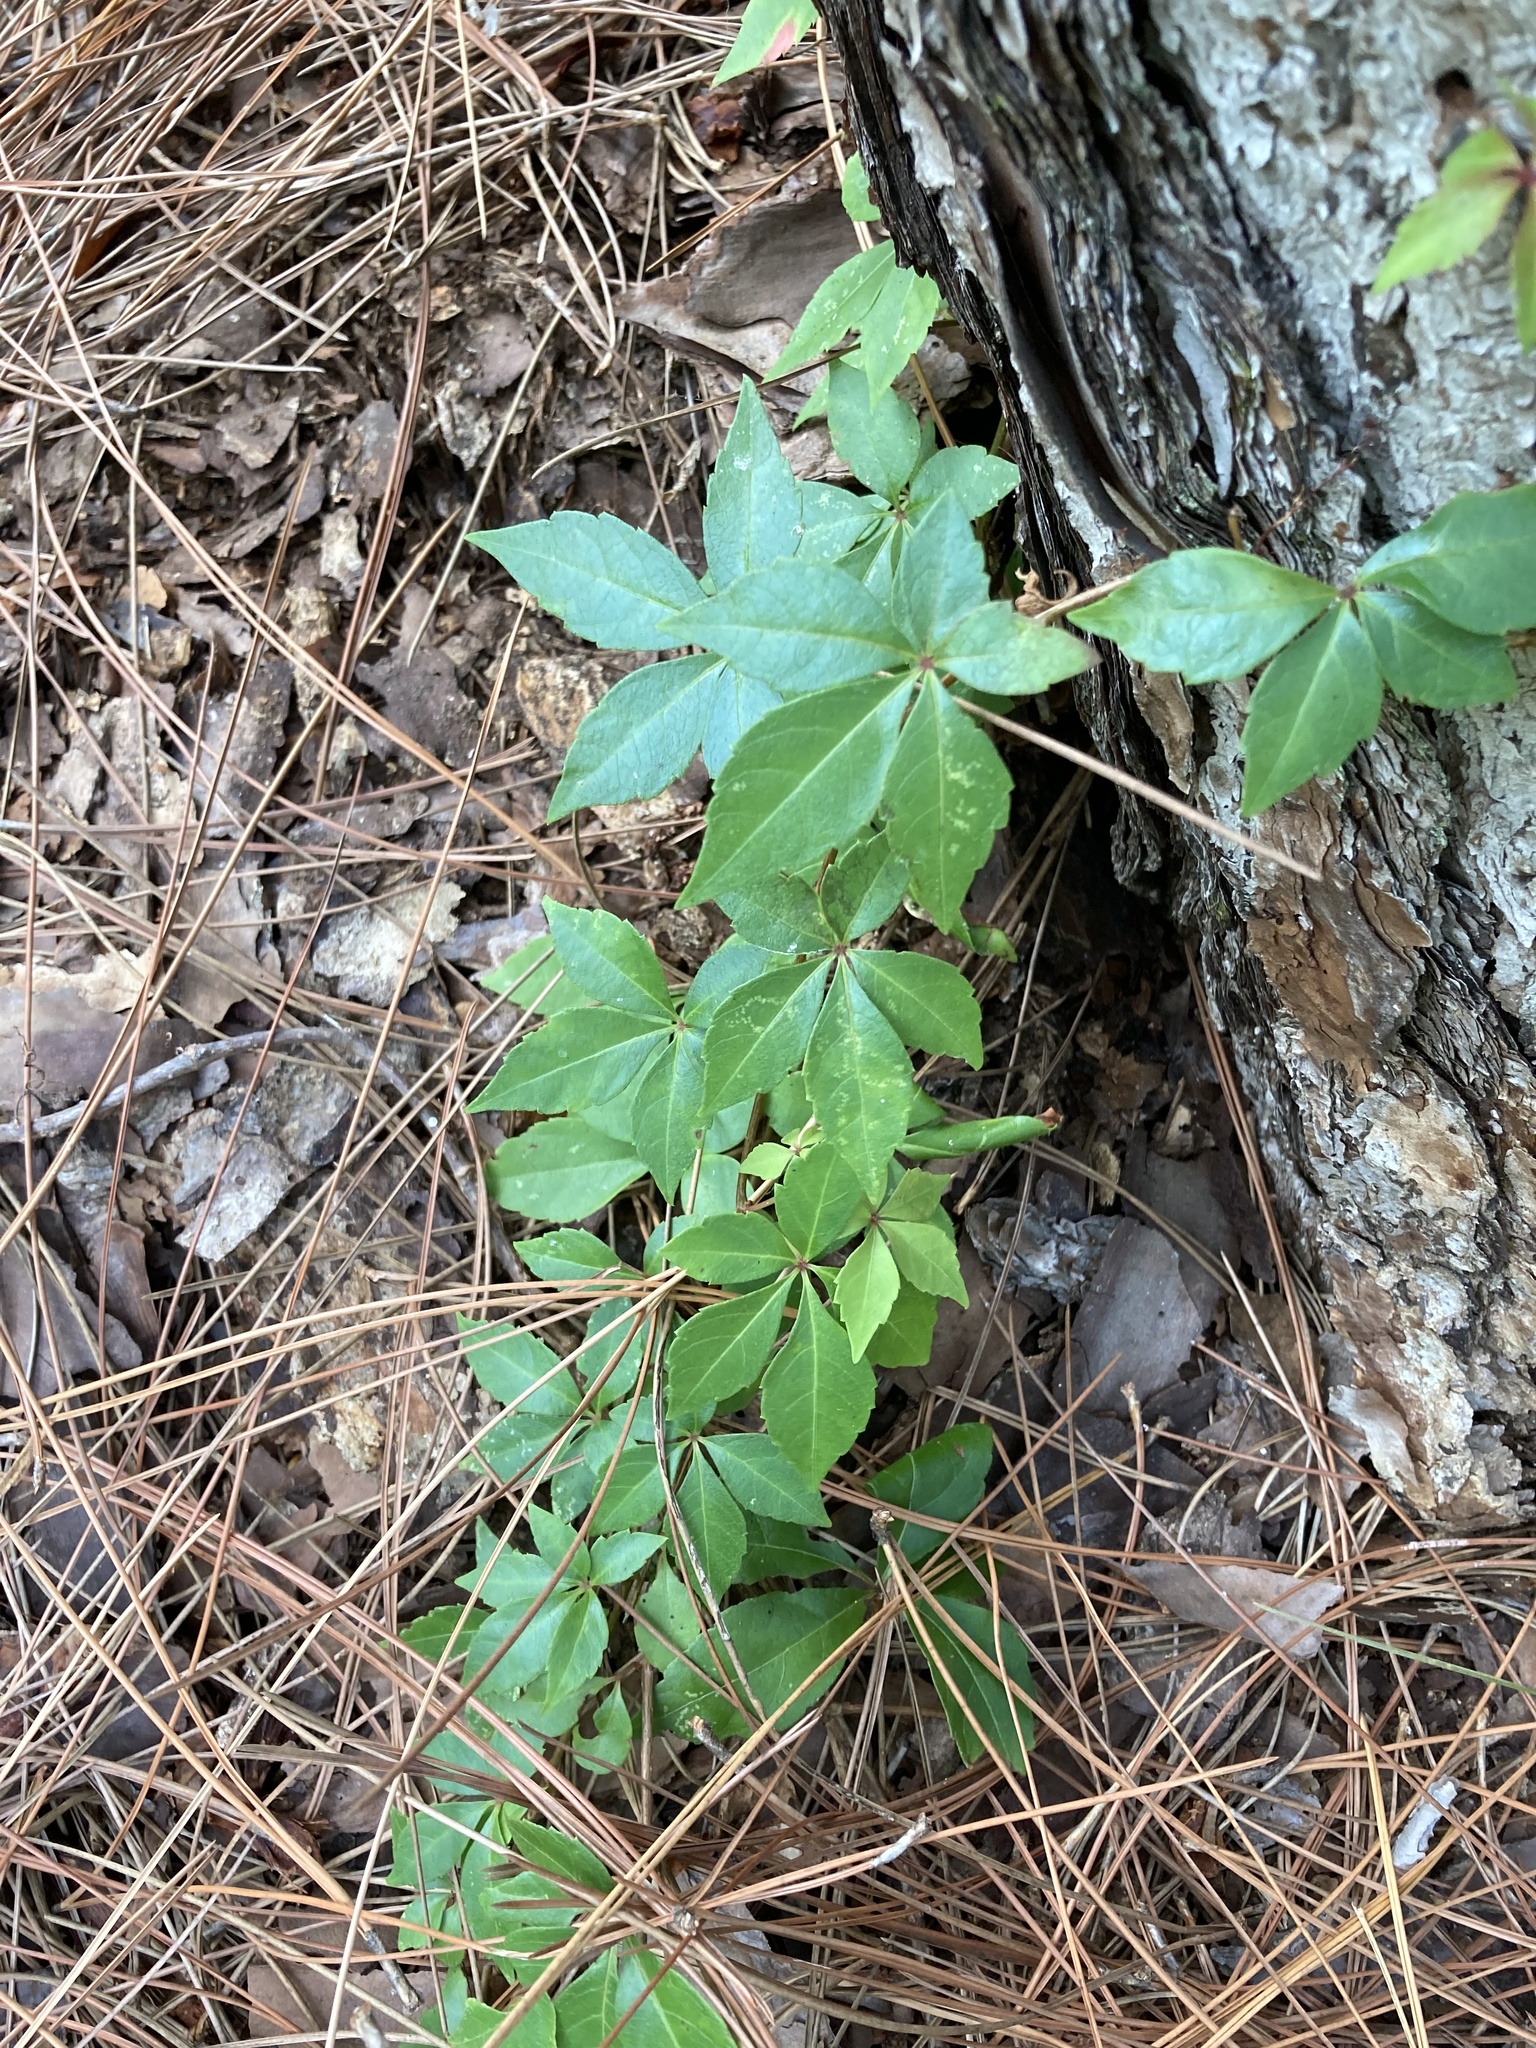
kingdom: Plantae
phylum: Tracheophyta
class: Magnoliopsida
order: Vitales
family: Vitaceae
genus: Parthenocissus
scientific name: Parthenocissus quinquefolia
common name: Virginia-creeper
